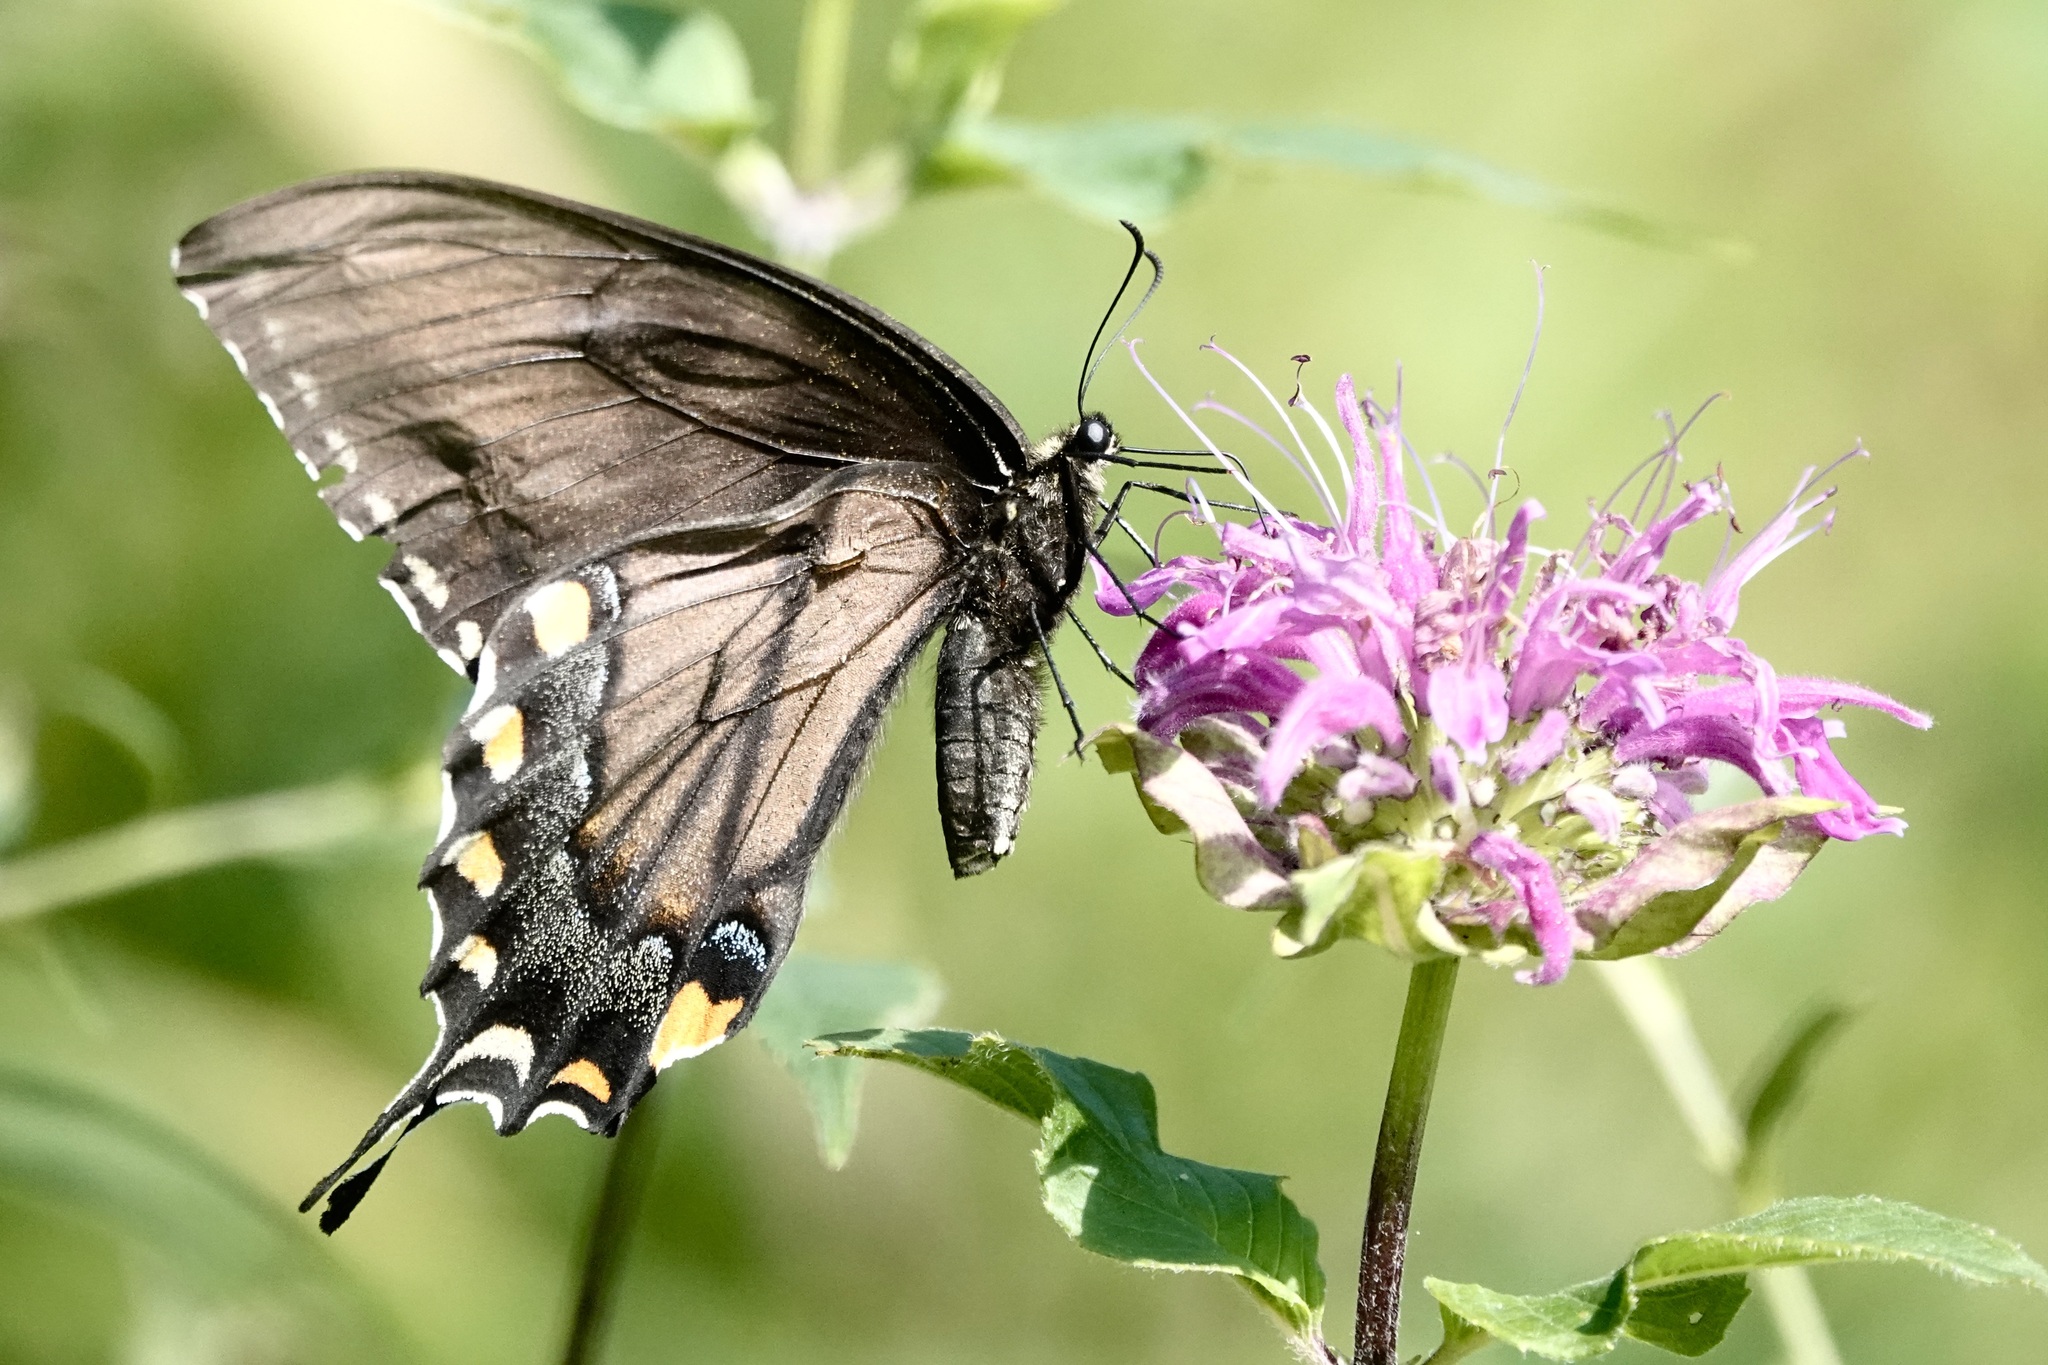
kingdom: Animalia
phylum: Arthropoda
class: Insecta
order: Lepidoptera
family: Papilionidae
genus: Papilio
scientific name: Papilio glaucus
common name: Tiger swallowtail
